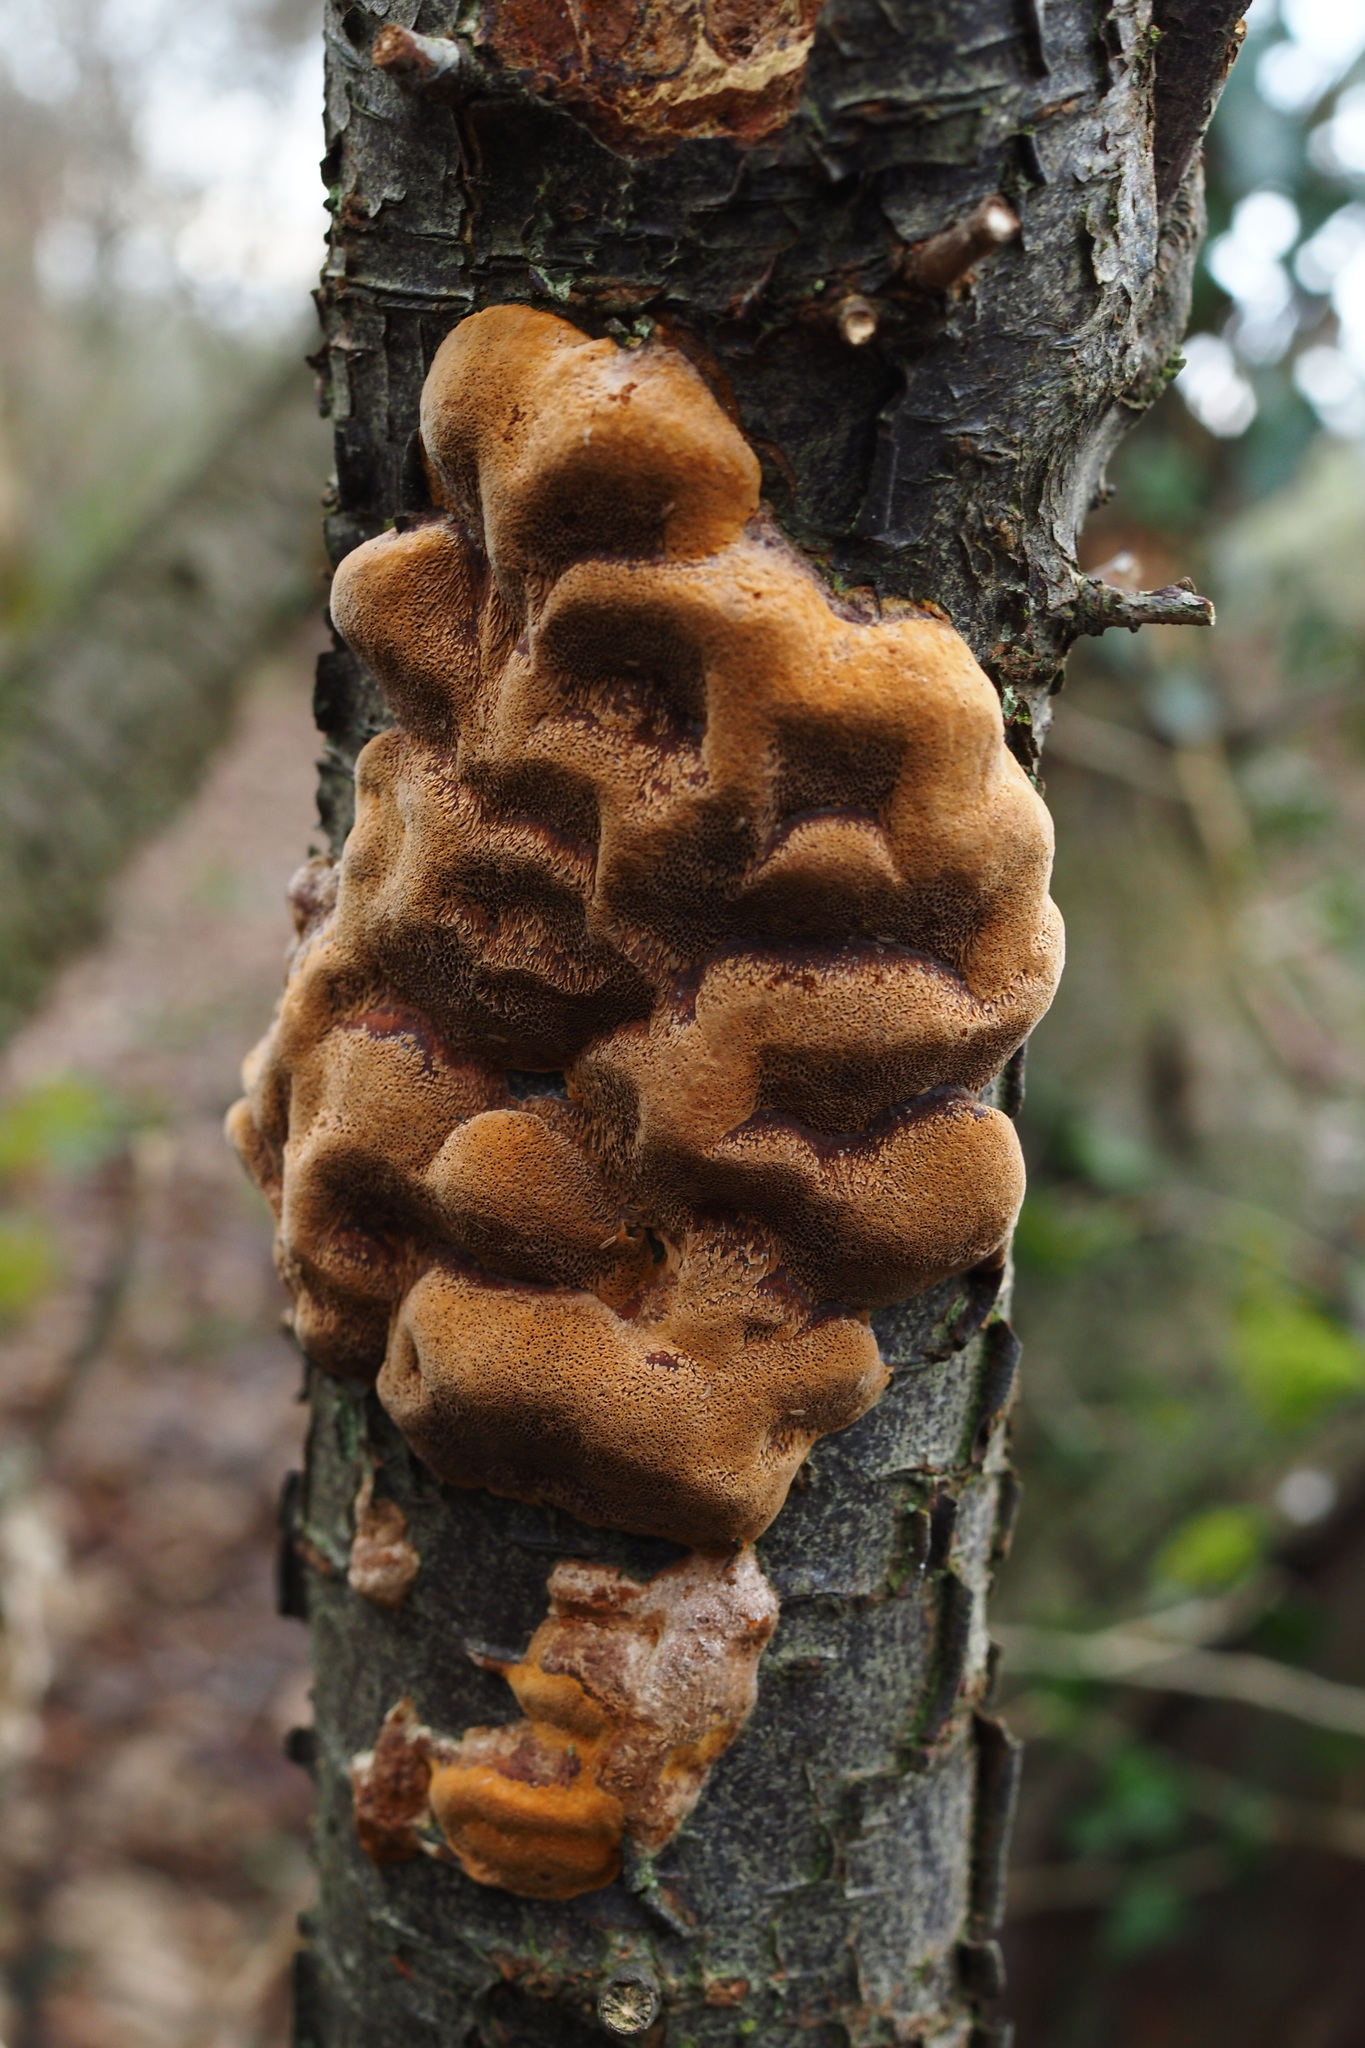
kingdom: Fungi
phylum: Basidiomycota
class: Agaricomycetes
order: Hymenochaetales
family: Hymenochaetaceae
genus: Phellinus
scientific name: Phellinus pomaceus
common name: Cushion bracket
